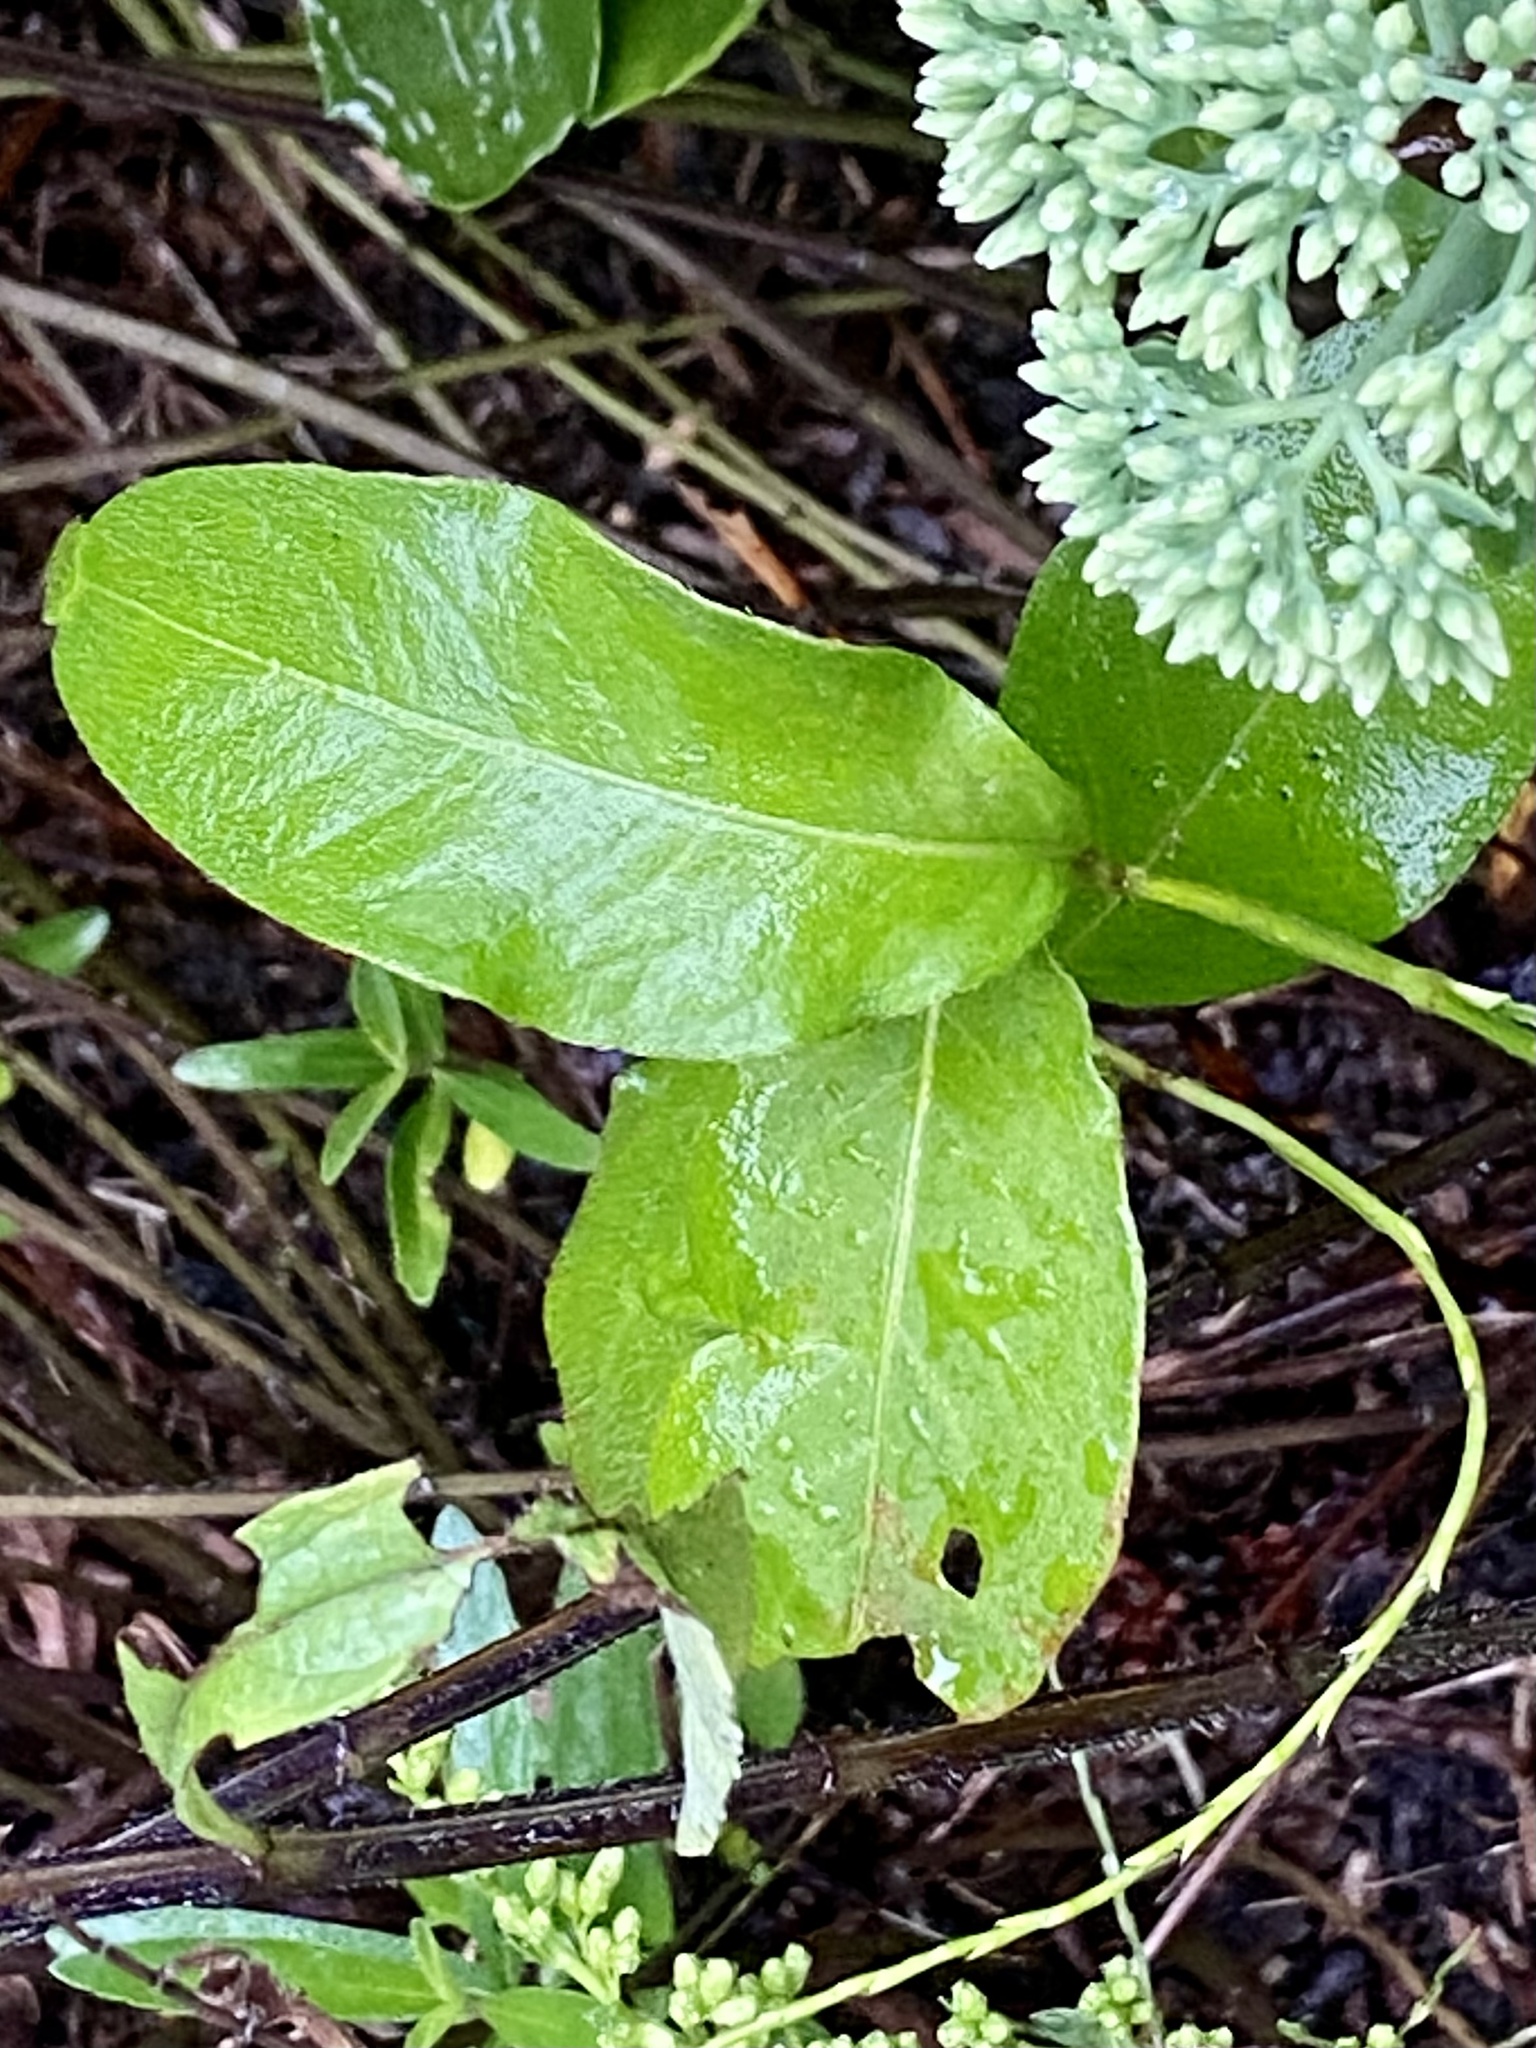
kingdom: Plantae
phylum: Tracheophyta
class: Magnoliopsida
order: Caryophyllales
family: Polygonaceae
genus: Persicaria
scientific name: Persicaria virginiana
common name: Jumpseed
